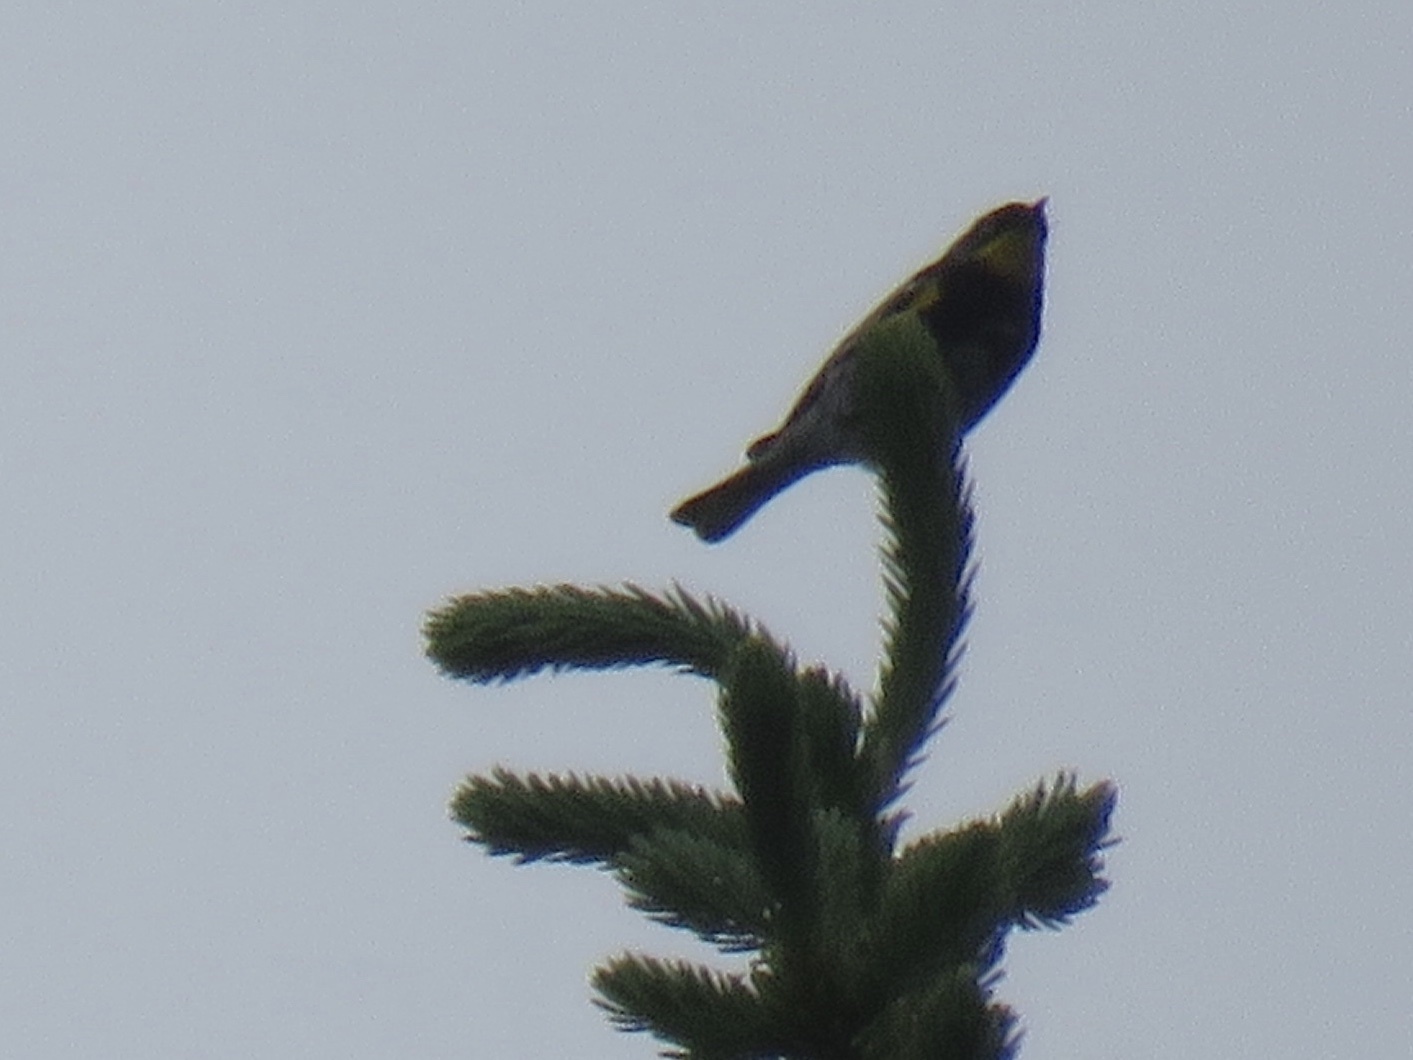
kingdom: Animalia
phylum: Chordata
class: Aves
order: Passeriformes
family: Parulidae
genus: Setophaga
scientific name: Setophaga auduboni
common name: Audubon's warbler
